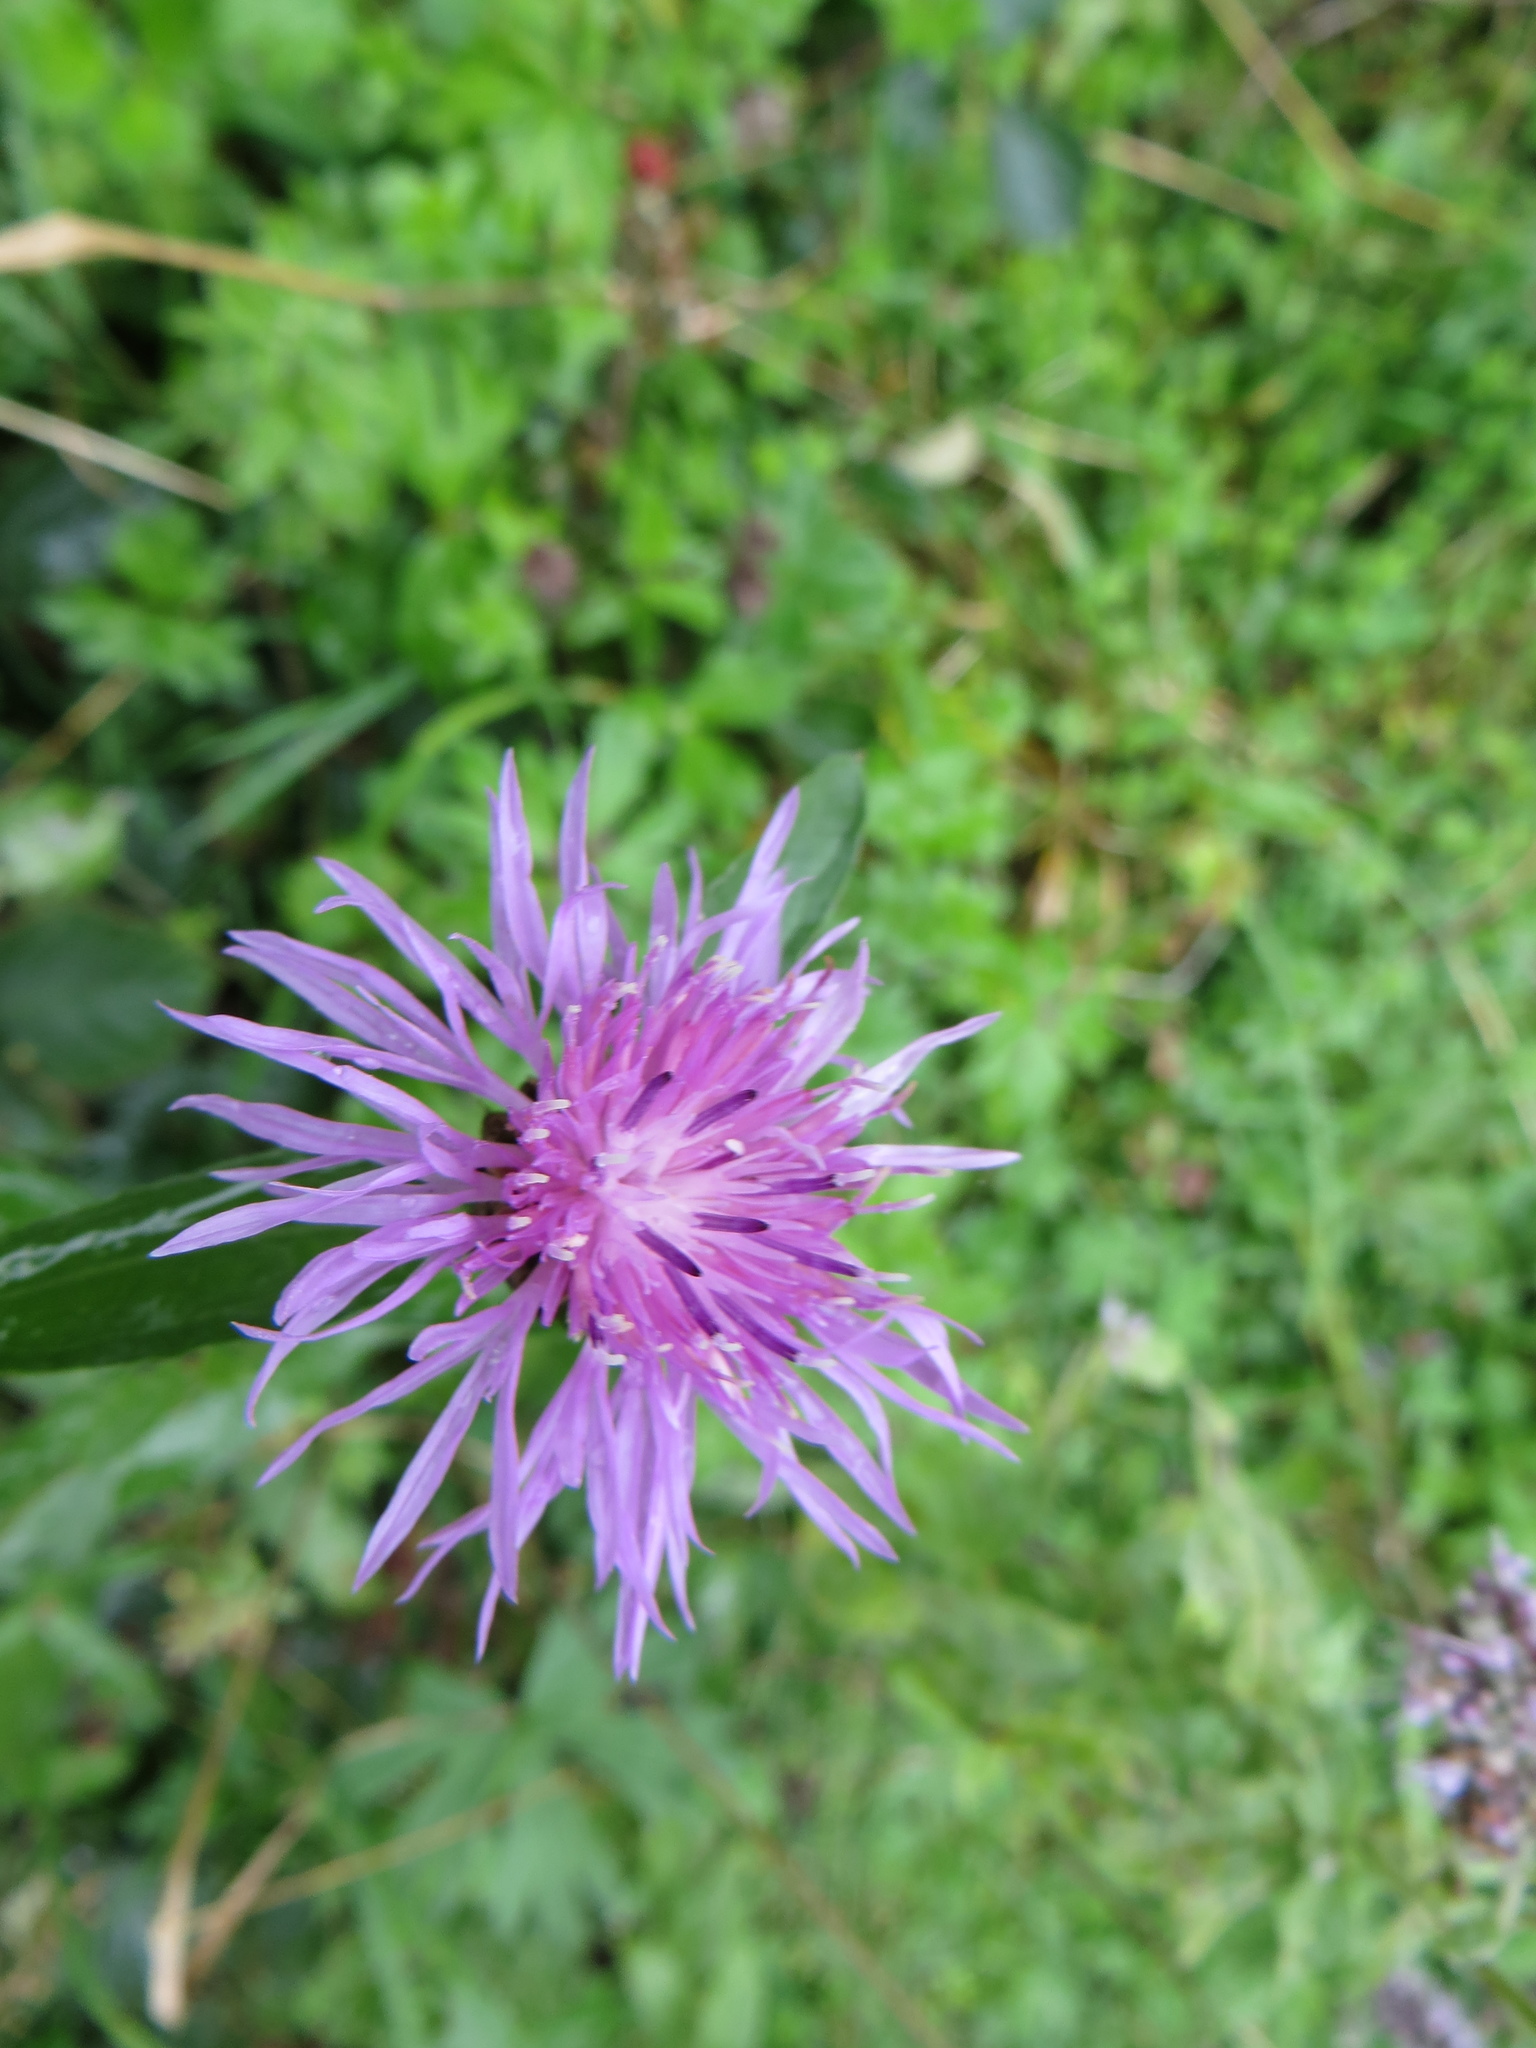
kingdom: Plantae
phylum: Tracheophyta
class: Magnoliopsida
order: Asterales
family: Asteraceae
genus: Centaurea
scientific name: Centaurea jacea
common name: Brown knapweed
